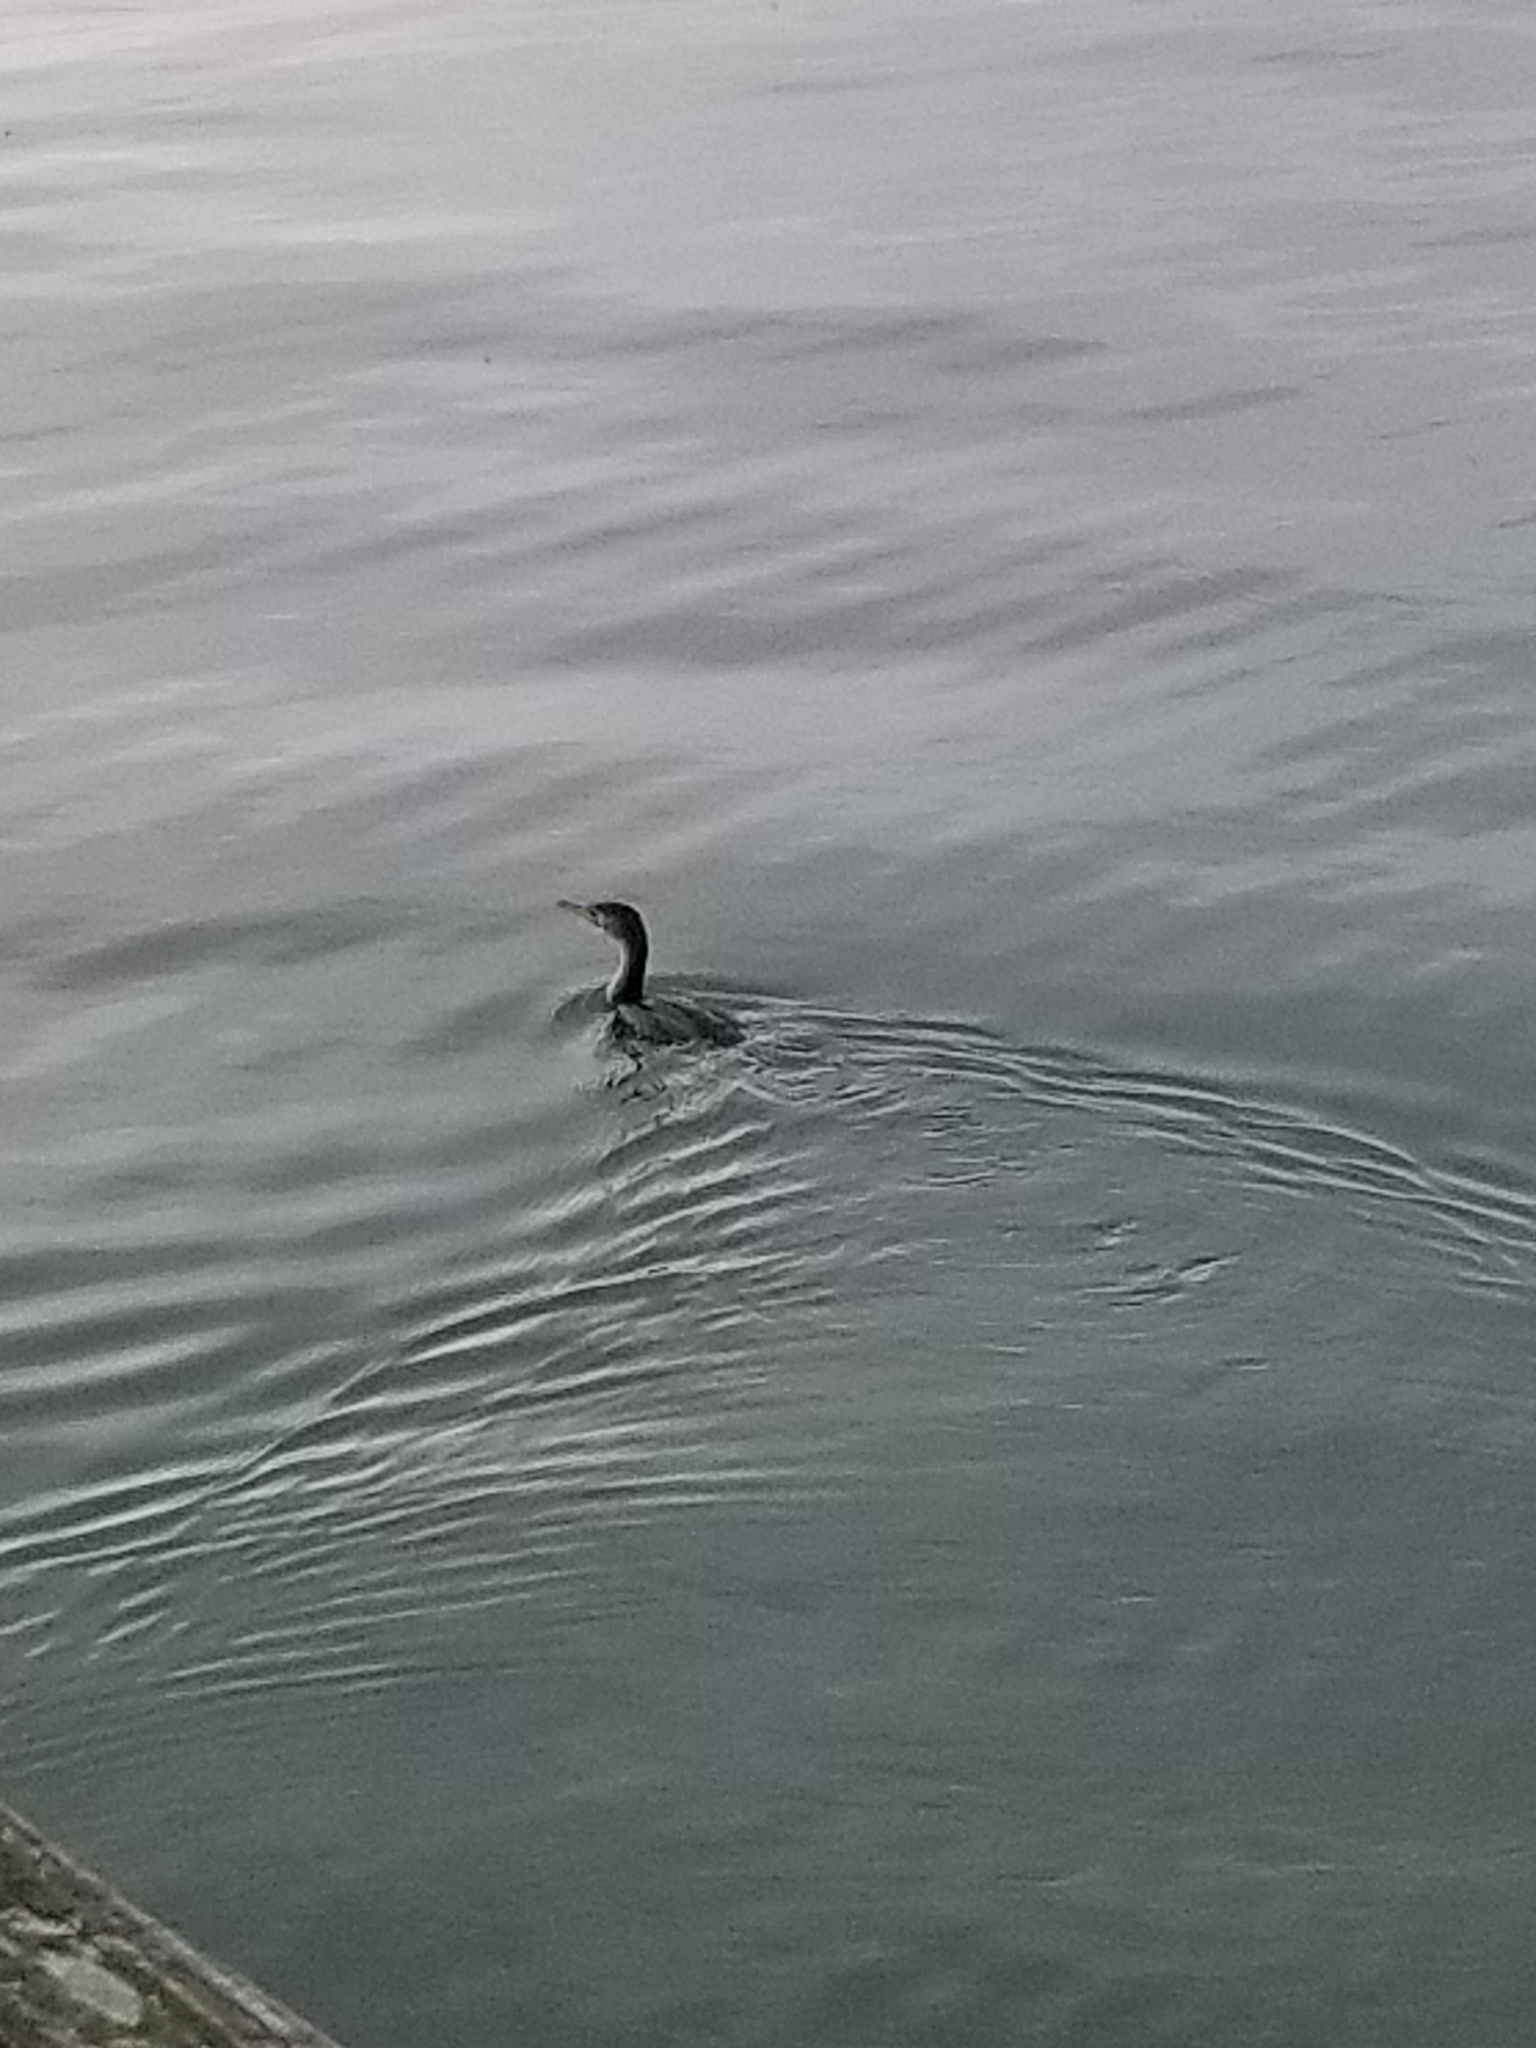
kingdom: Animalia
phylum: Chordata
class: Aves
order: Suliformes
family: Phalacrocoracidae
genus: Phalacrocorax
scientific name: Phalacrocorax auritus
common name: Double-crested cormorant
